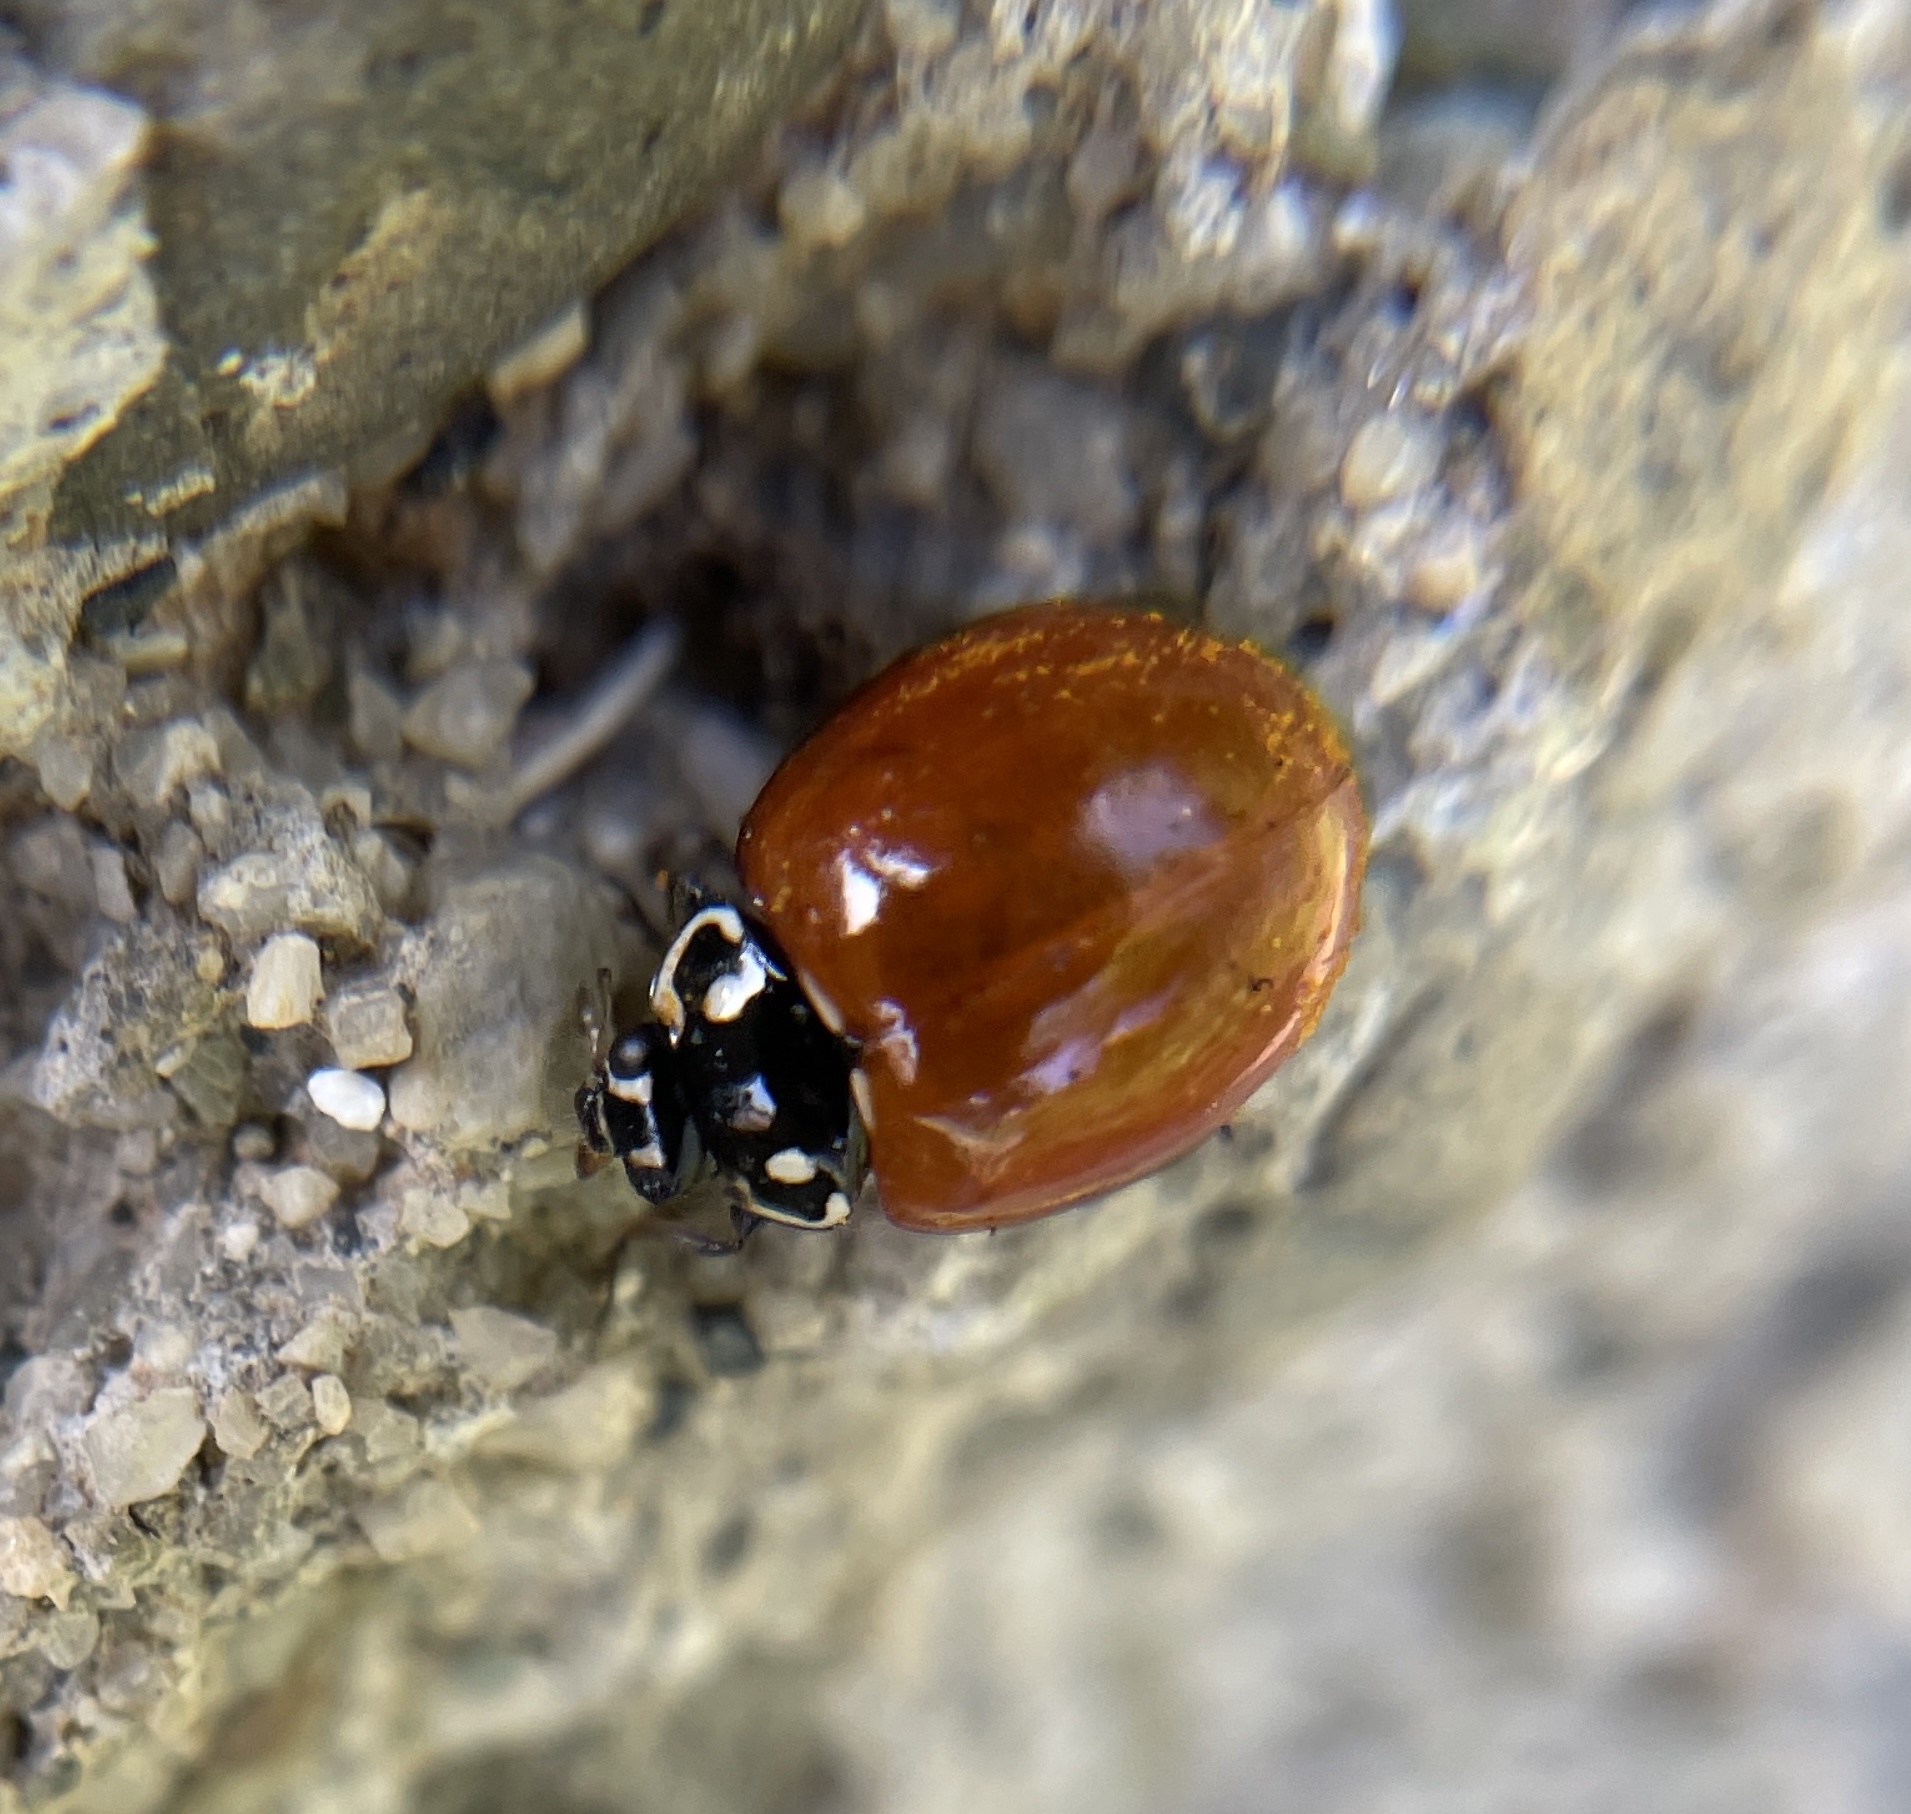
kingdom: Animalia
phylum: Arthropoda
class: Insecta
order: Coleoptera
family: Coccinellidae
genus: Cycloneda
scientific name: Cycloneda sanguinea
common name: Ladybird beetle
